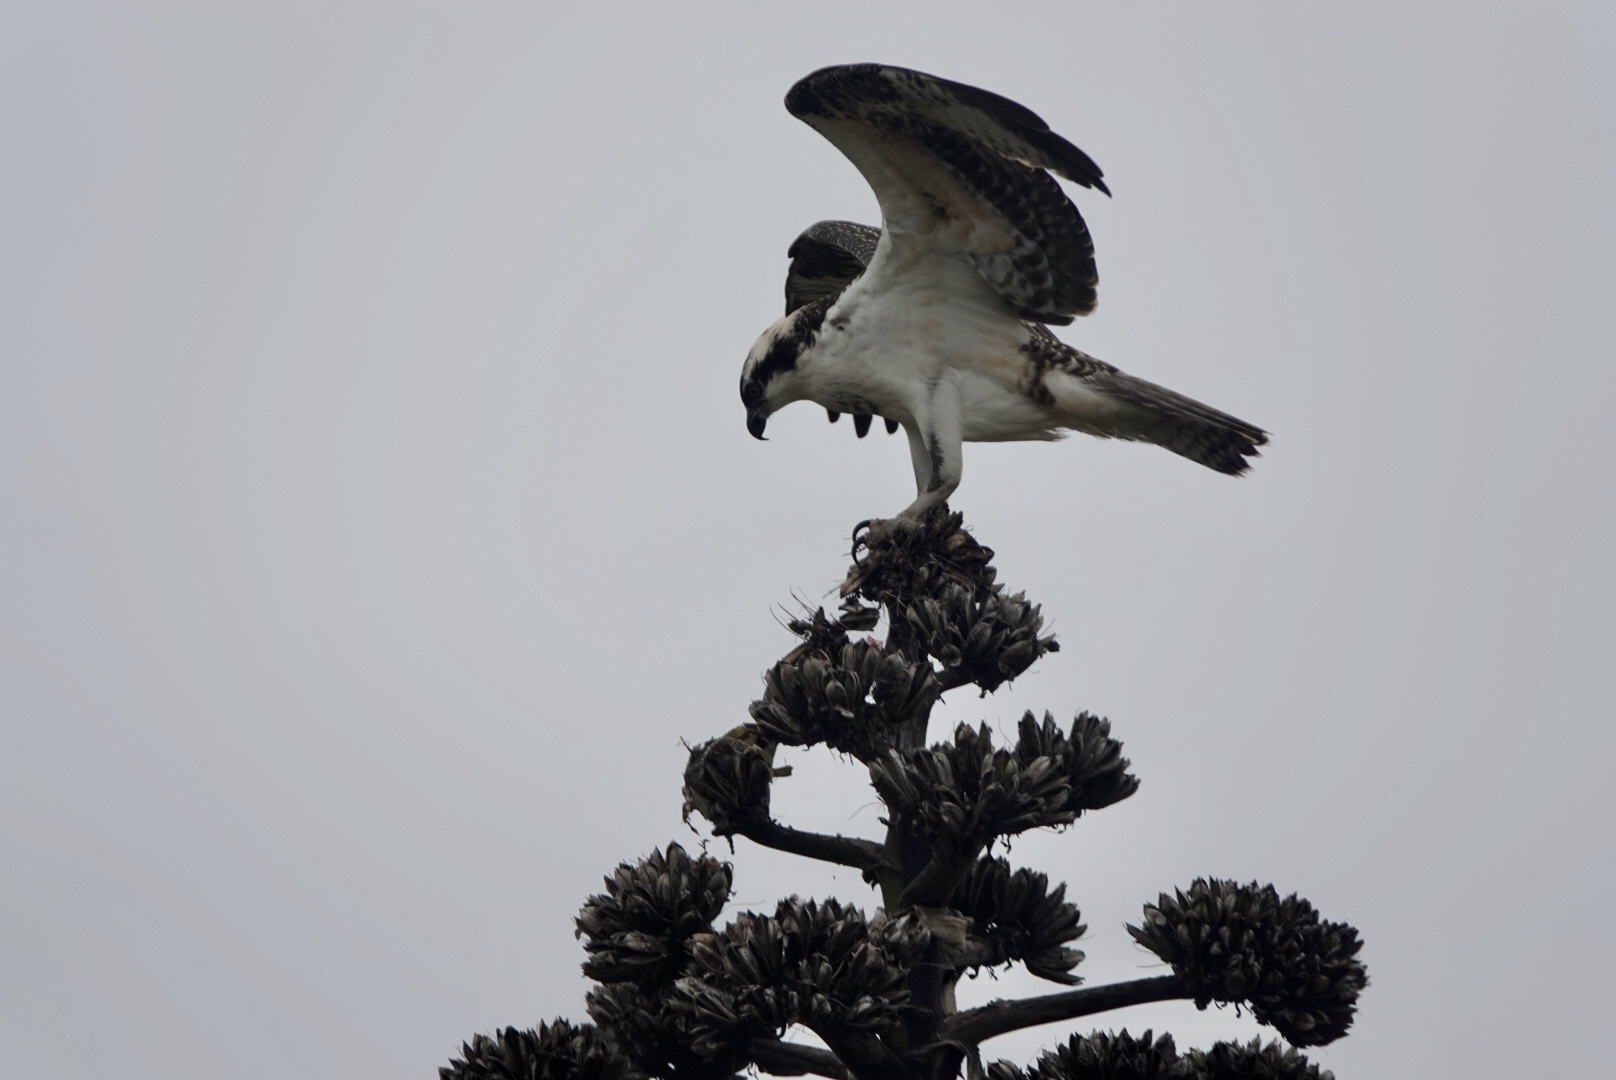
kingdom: Animalia
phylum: Chordata
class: Aves
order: Accipitriformes
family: Pandionidae
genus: Pandion
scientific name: Pandion haliaetus
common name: Osprey
